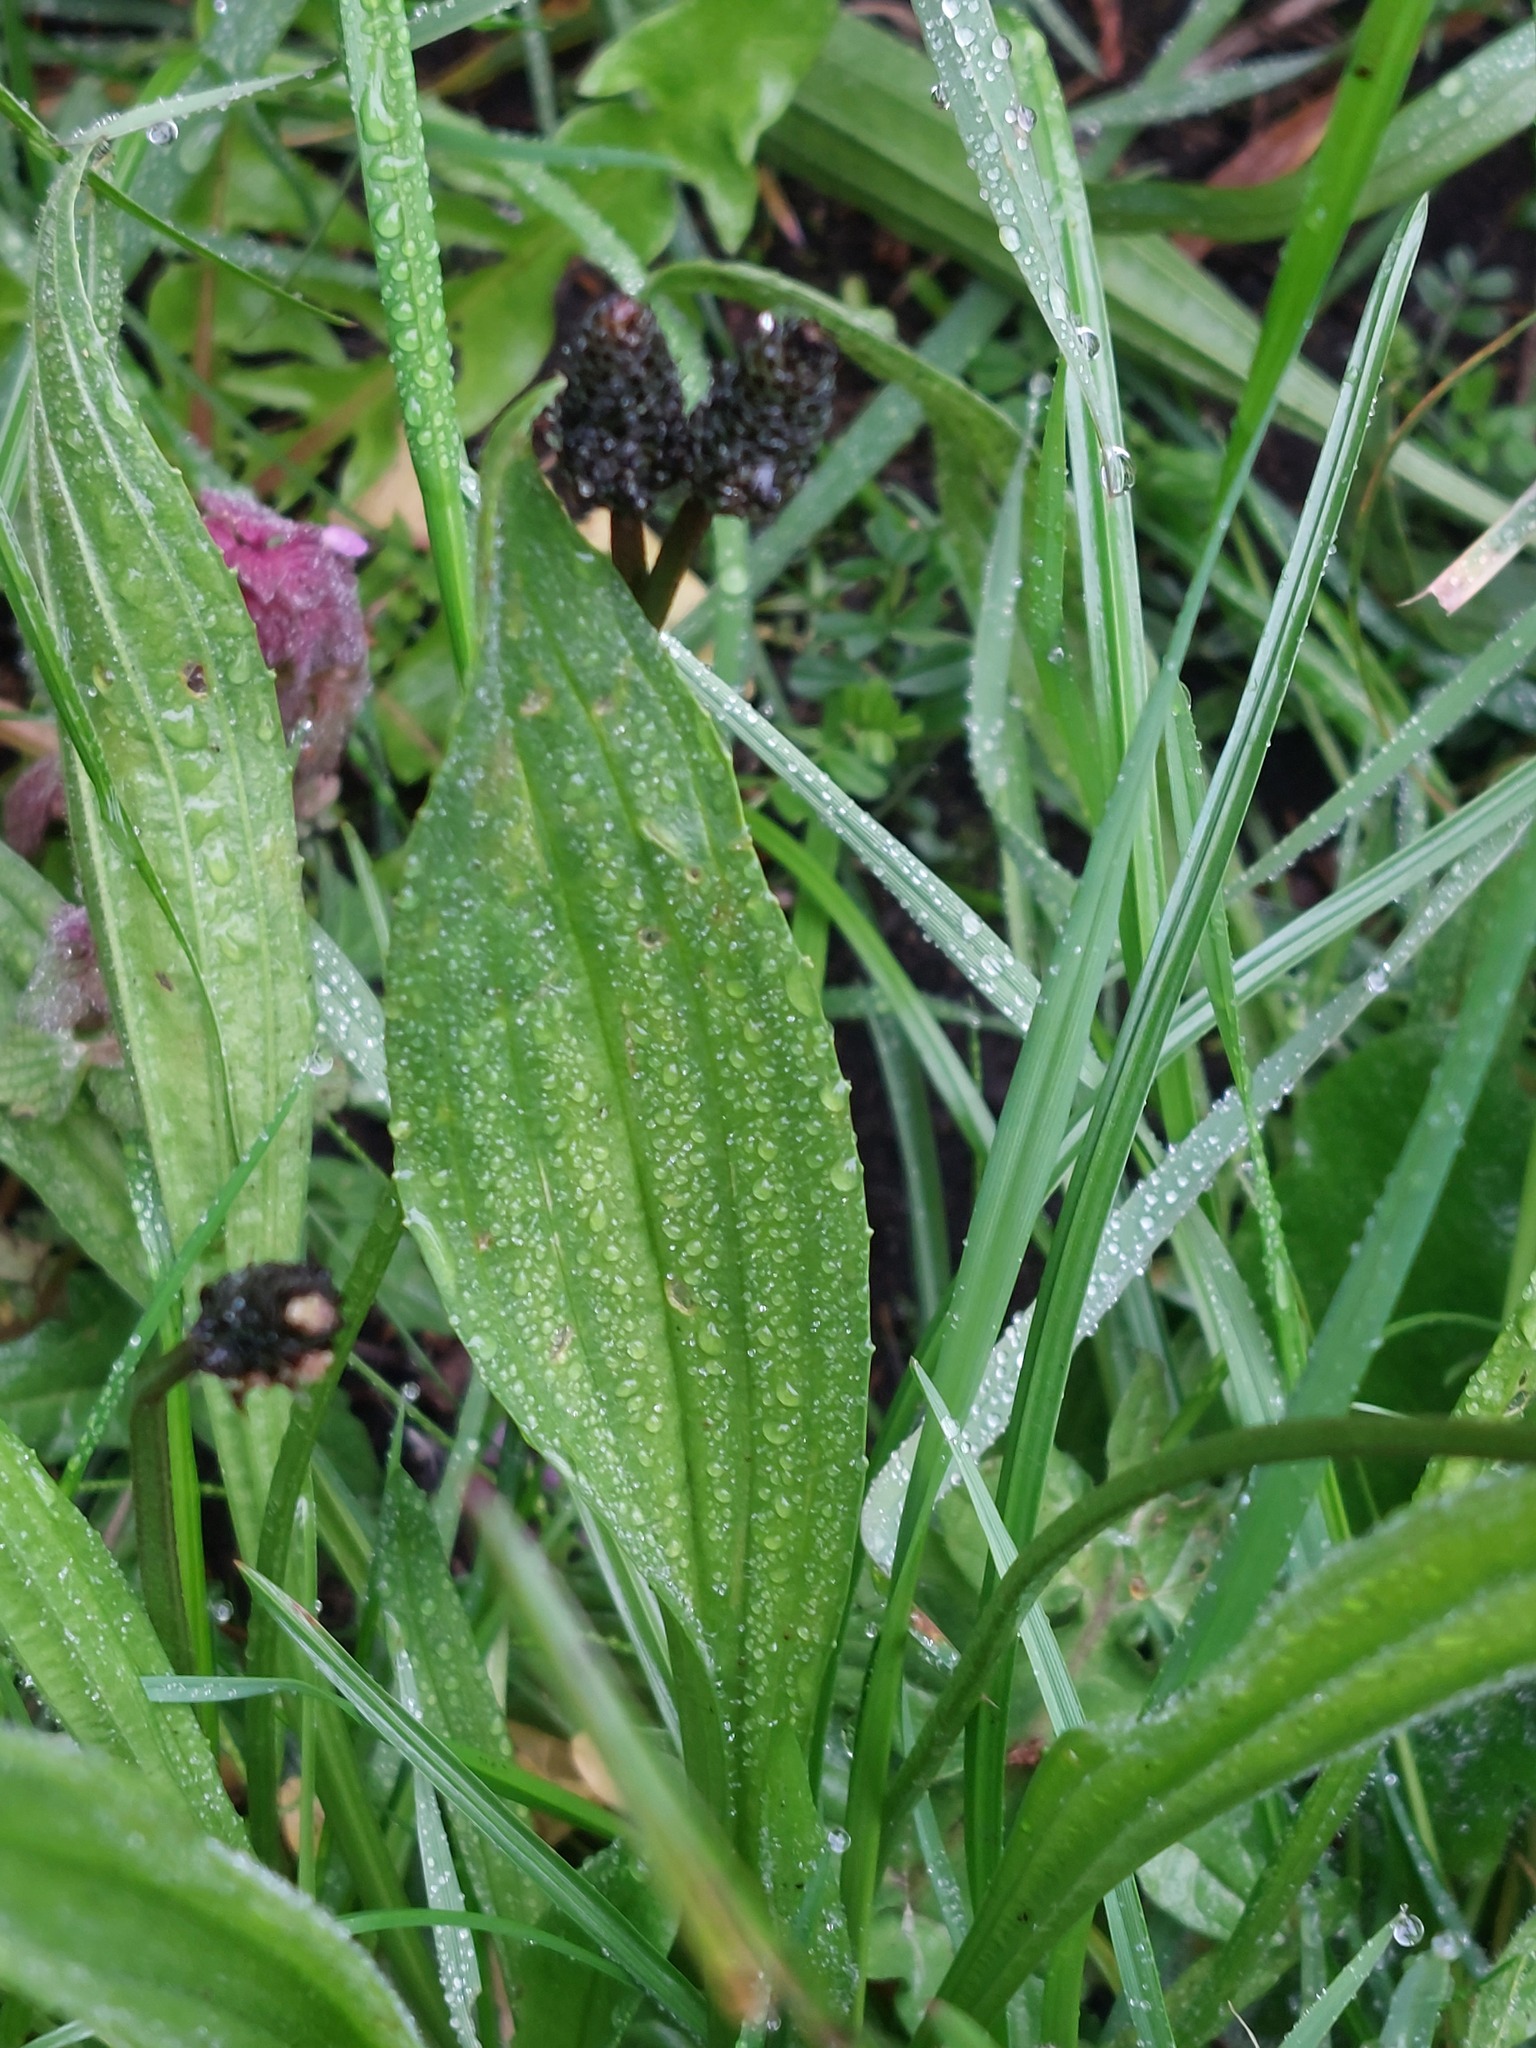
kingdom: Plantae
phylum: Tracheophyta
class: Magnoliopsida
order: Lamiales
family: Plantaginaceae
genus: Plantago
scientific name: Plantago lanceolata
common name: Ribwort plantain
